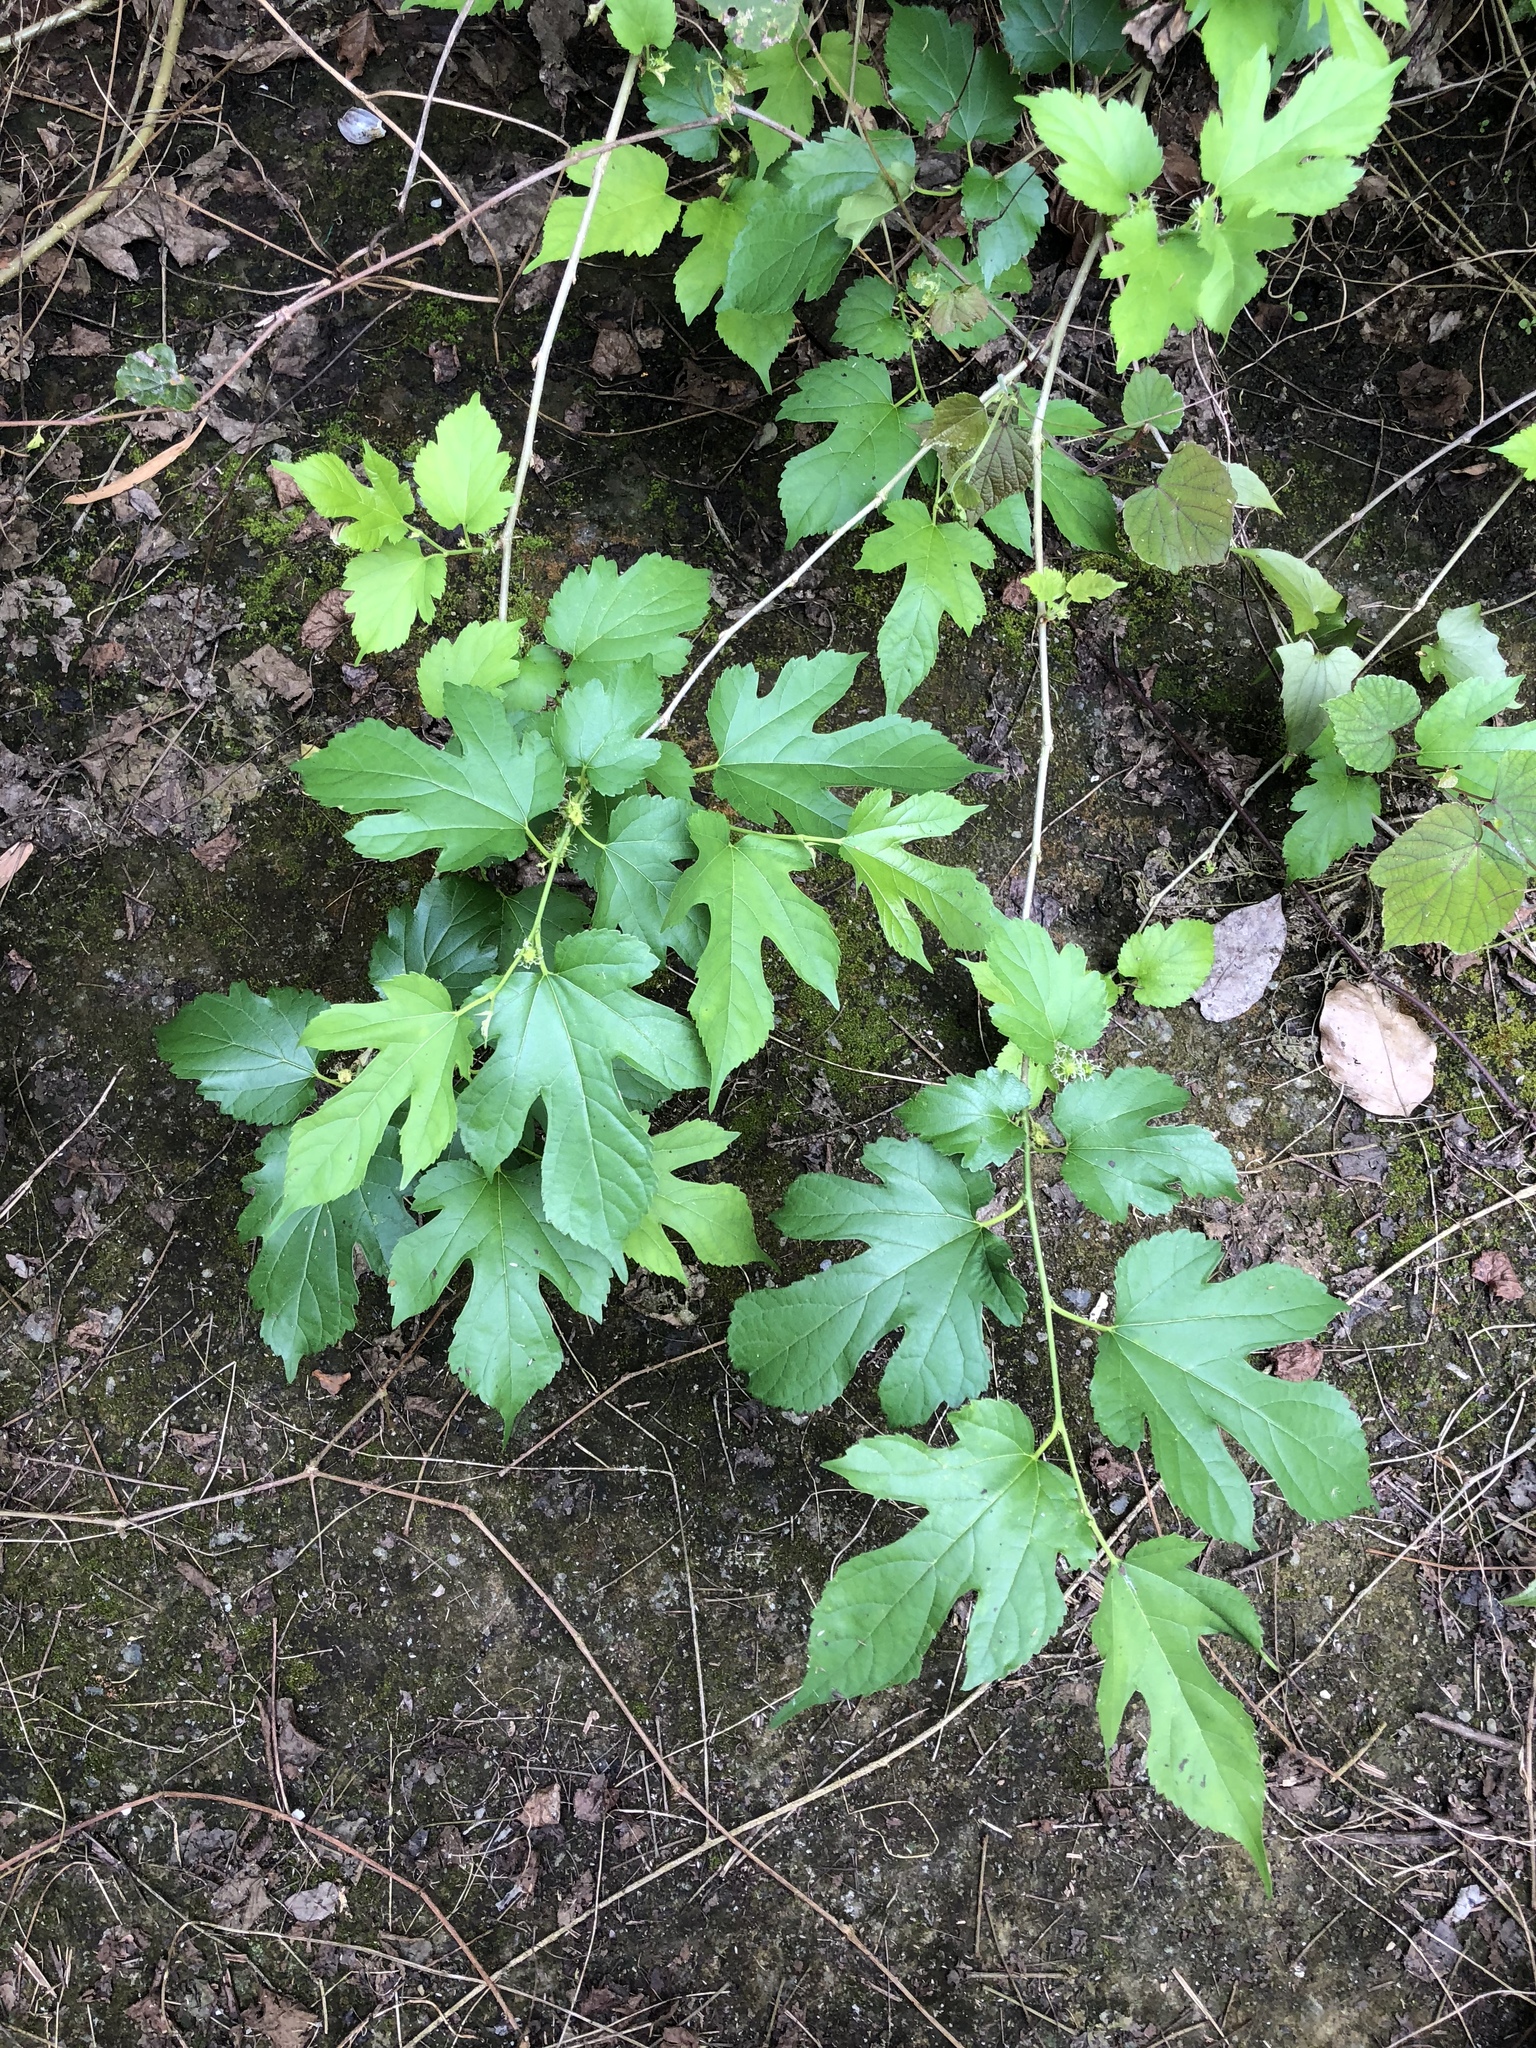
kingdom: Plantae
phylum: Tracheophyta
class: Magnoliopsida
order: Rosales
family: Moraceae
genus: Morus
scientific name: Morus indica
